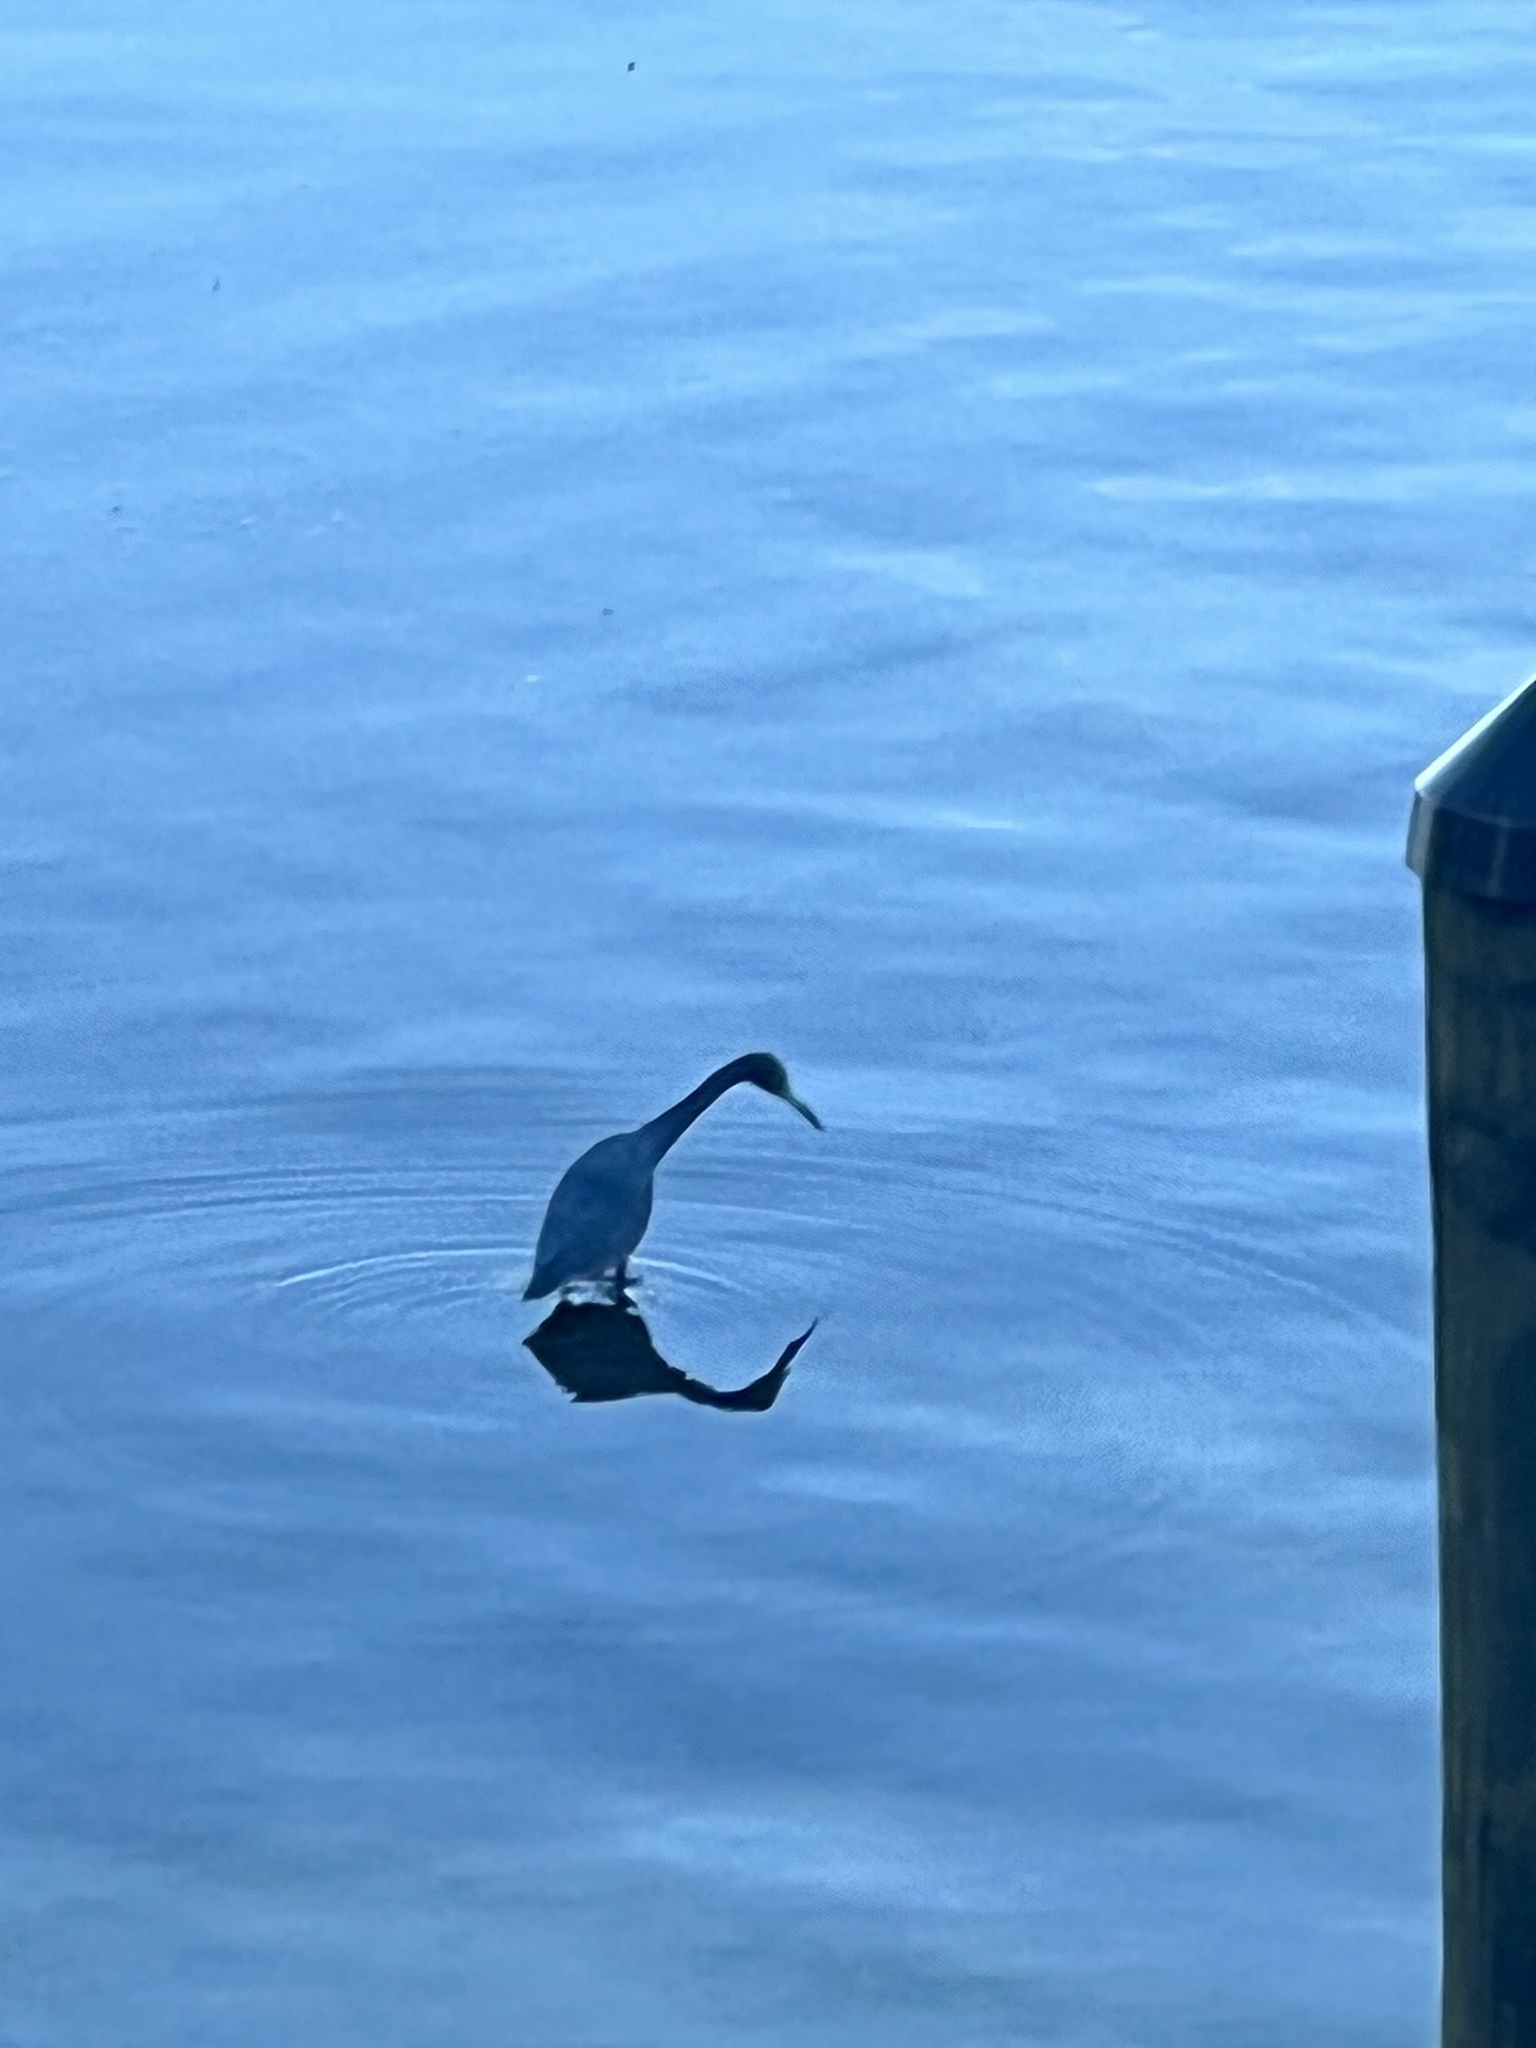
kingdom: Animalia
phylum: Chordata
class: Aves
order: Pelecaniformes
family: Ardeidae
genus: Egretta
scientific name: Egretta caerulea
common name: Little blue heron
